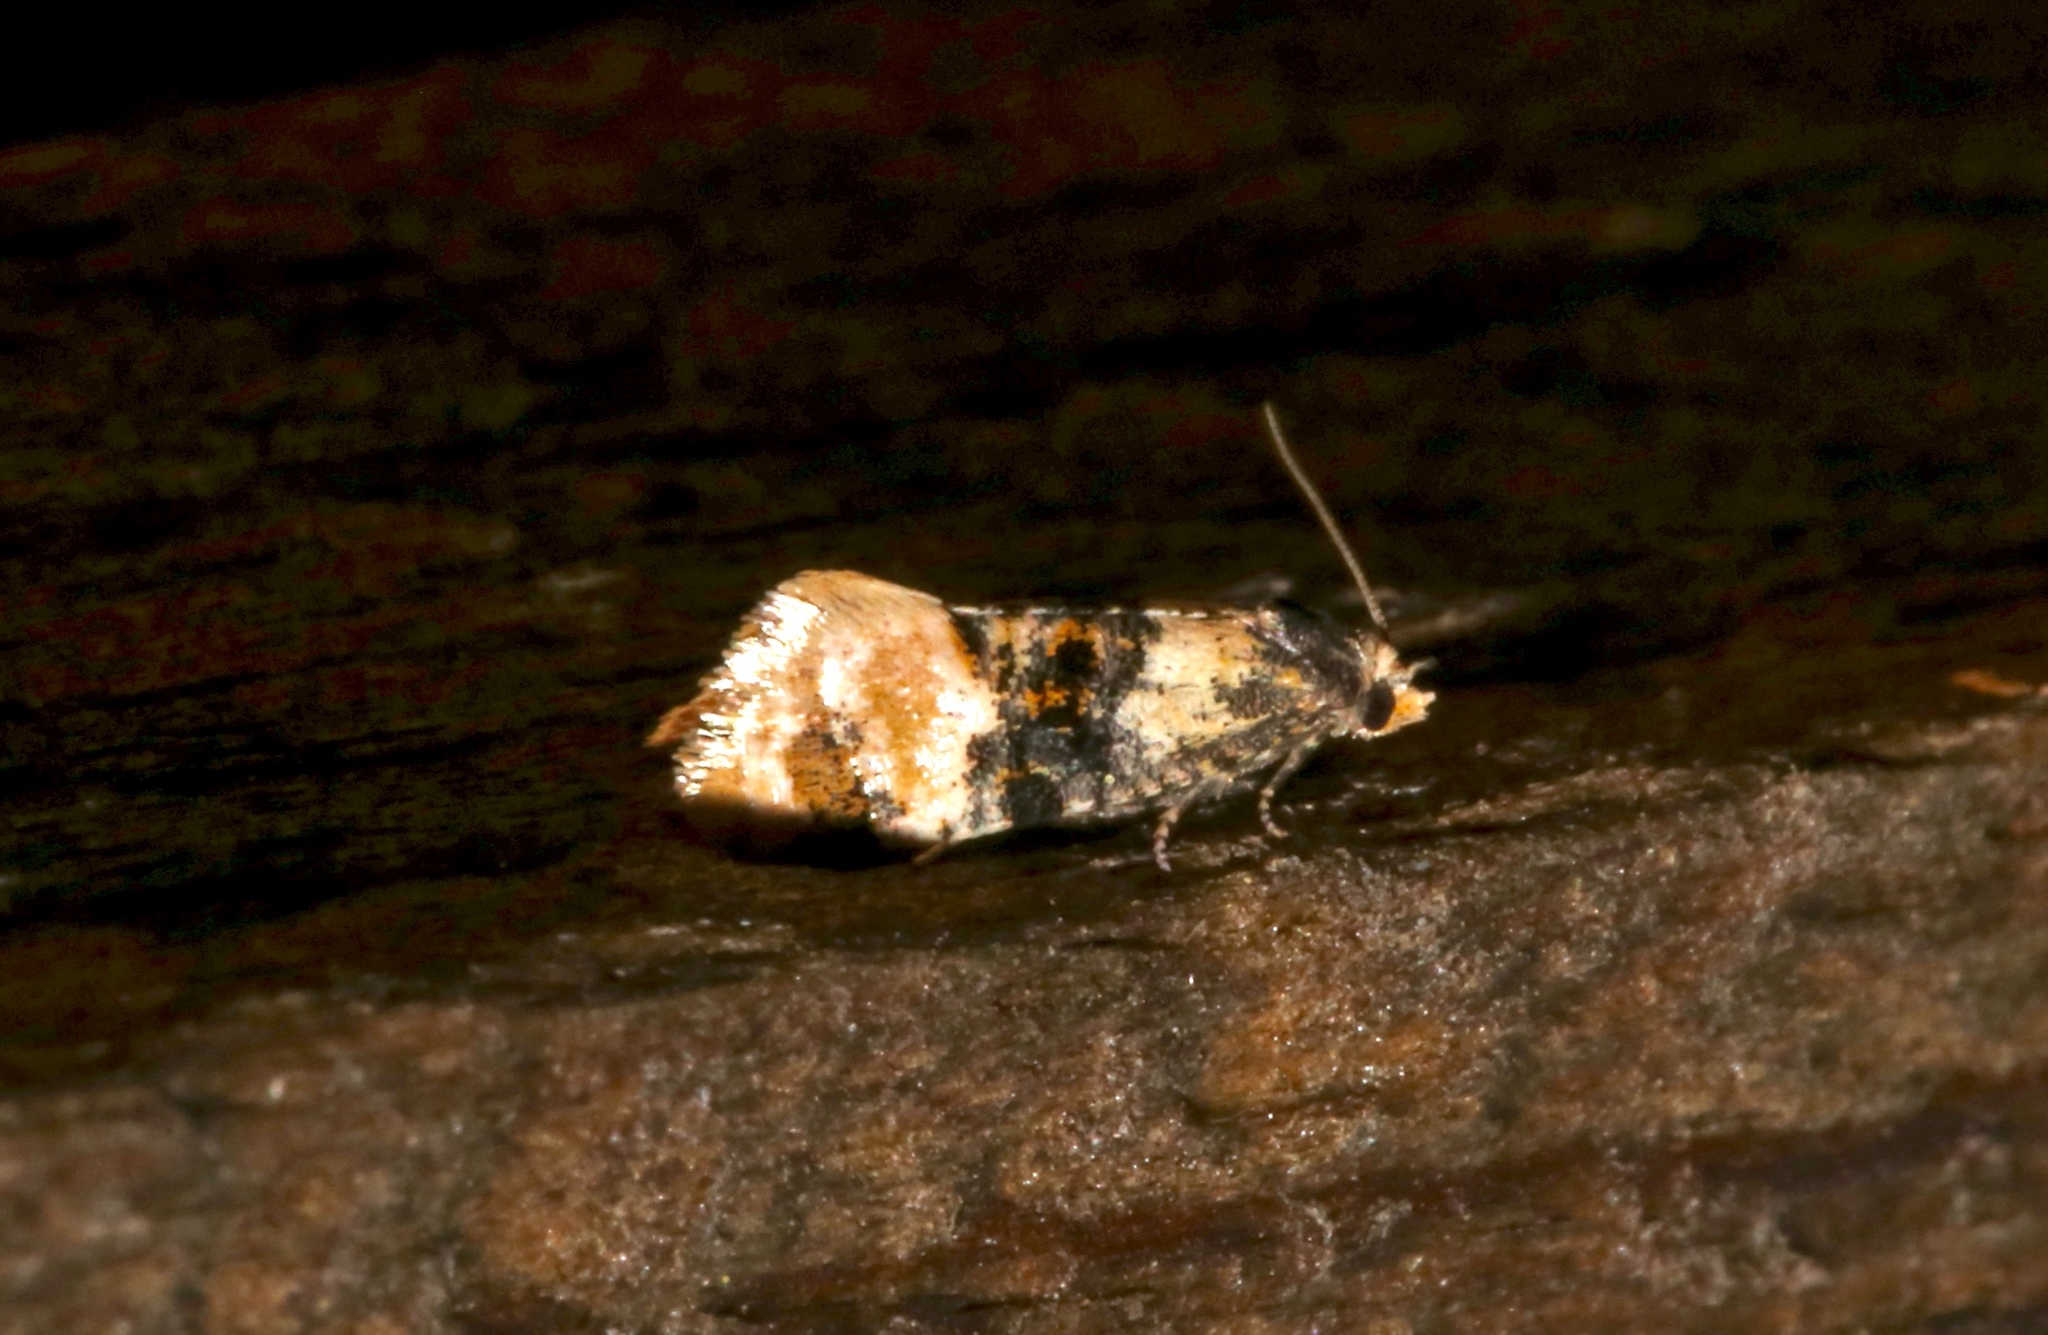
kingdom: Animalia
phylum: Arthropoda
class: Insecta
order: Lepidoptera
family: Tortricidae
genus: Thyraylia
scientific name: Thyraylia nana
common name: Birch conch
